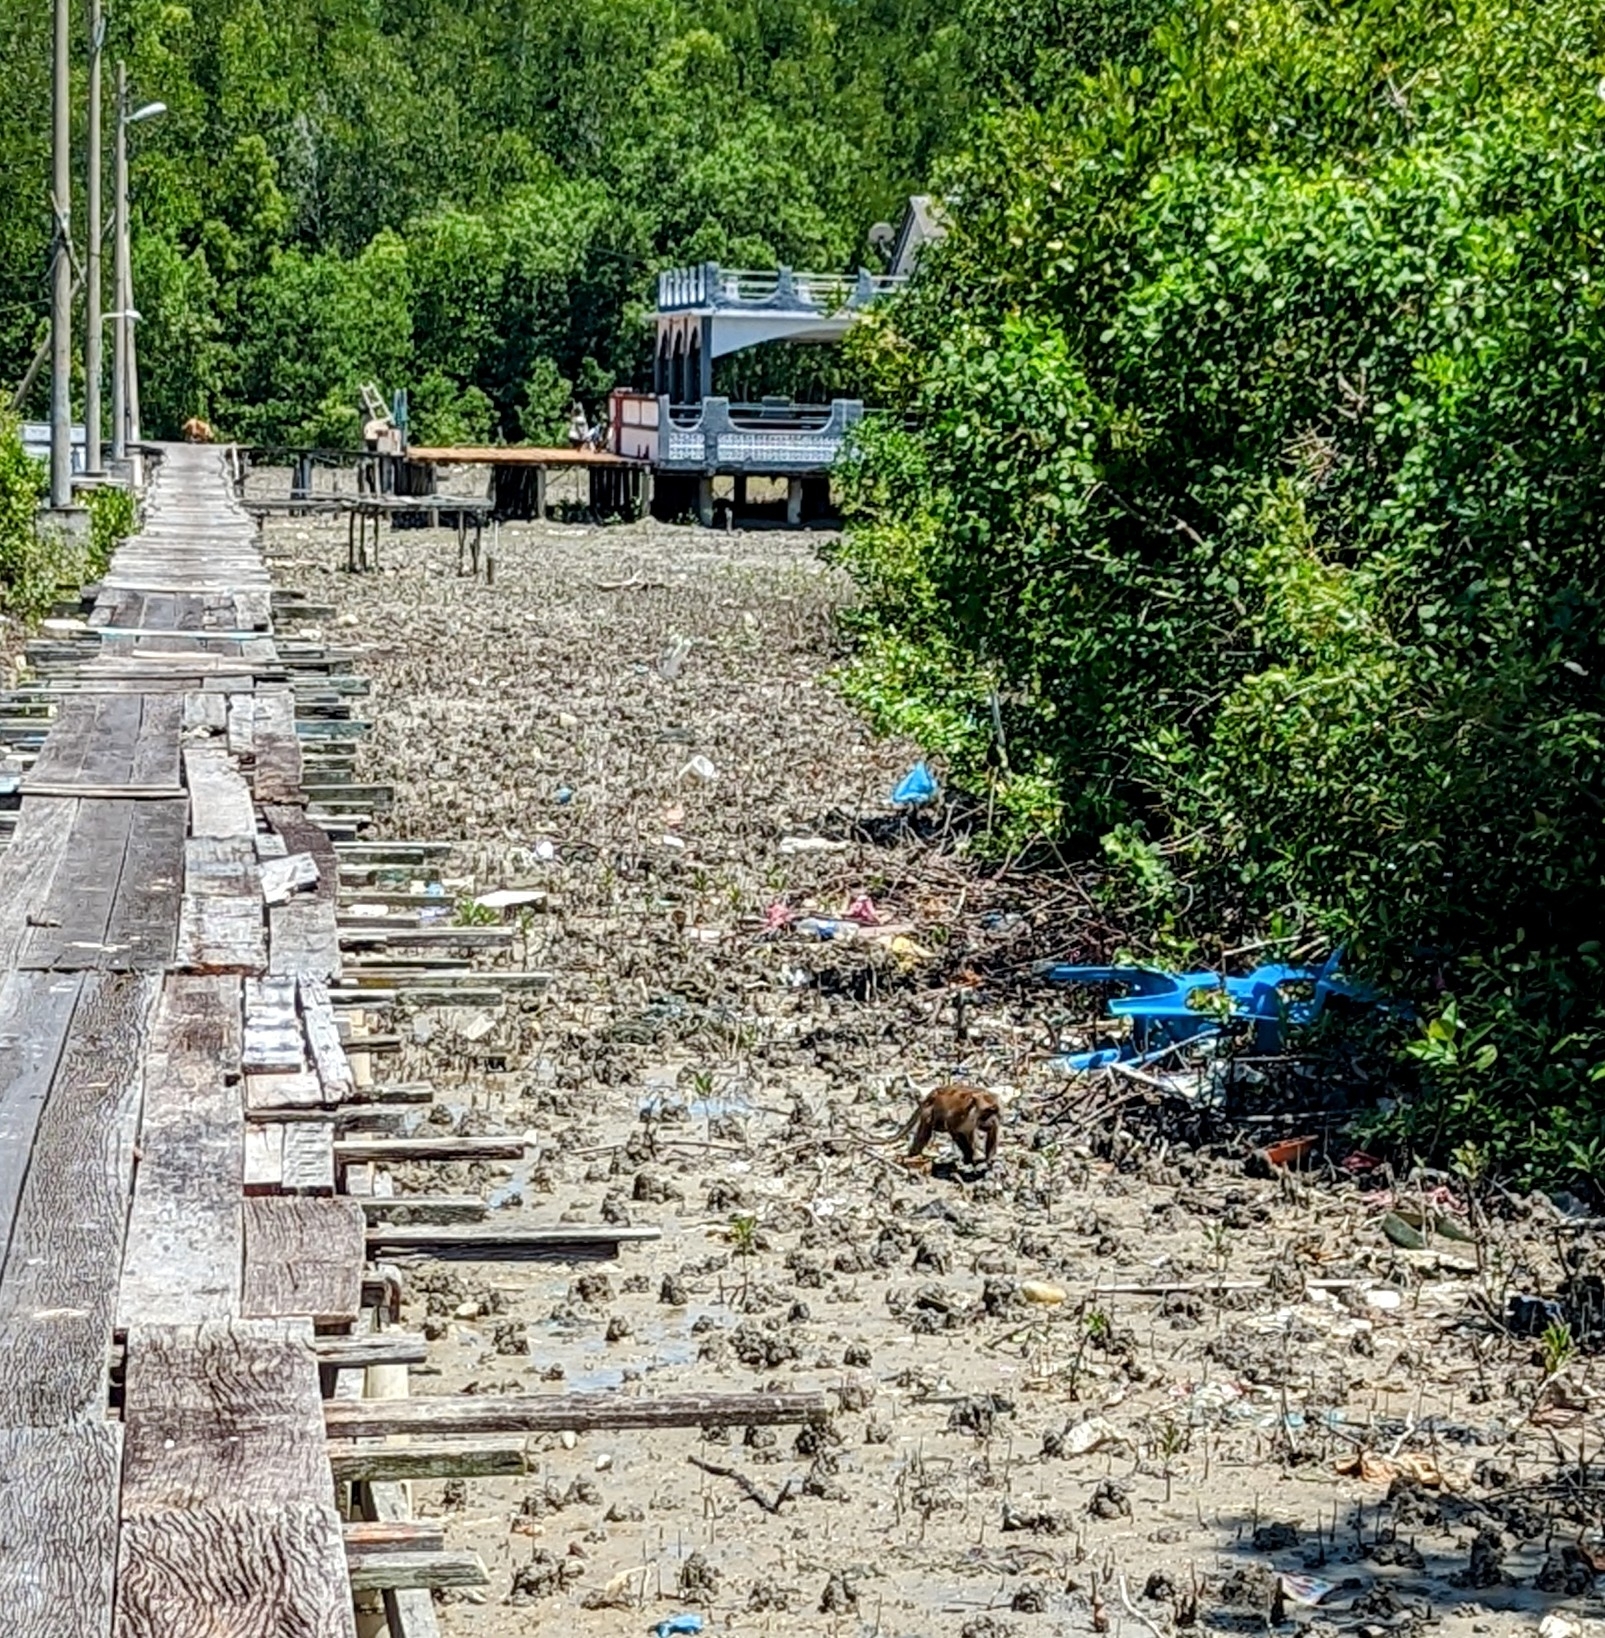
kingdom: Animalia
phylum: Chordata
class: Mammalia
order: Primates
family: Cercopithecidae
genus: Macaca
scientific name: Macaca fascicularis
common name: Crab-eating macaque
